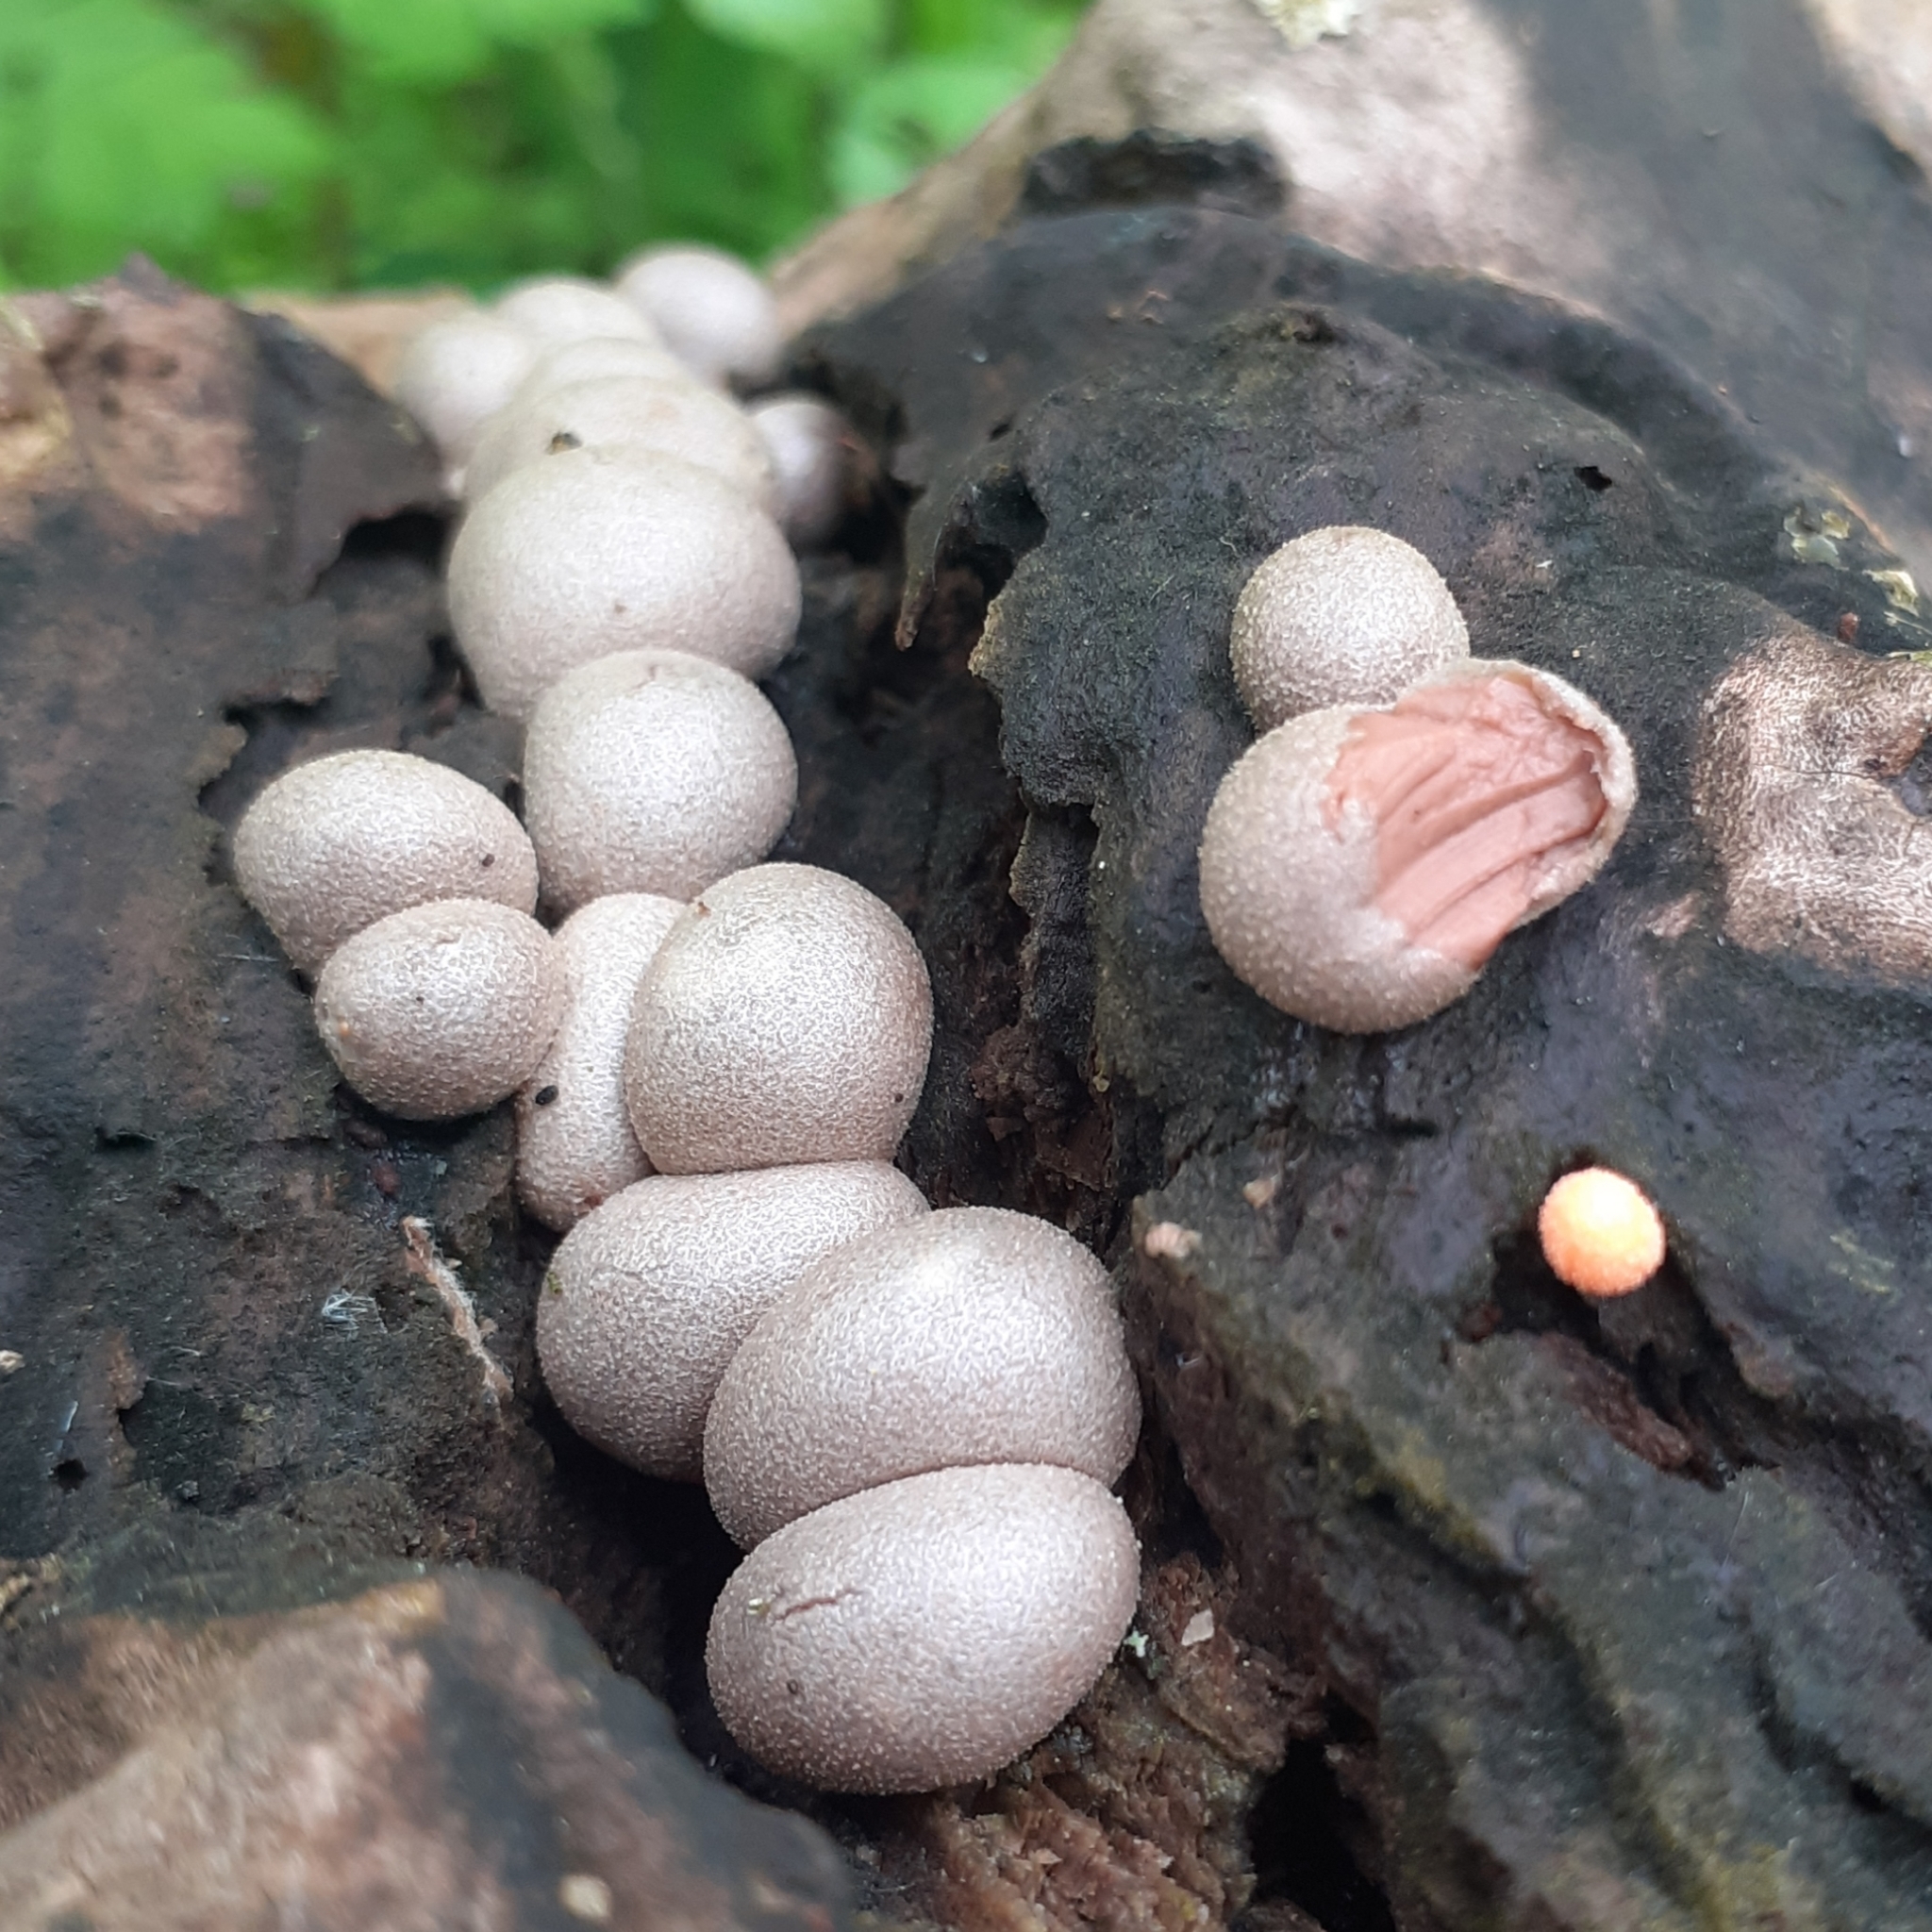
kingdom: Protozoa
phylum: Mycetozoa
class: Myxomycetes
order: Cribrariales
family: Tubiferaceae
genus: Lycogala
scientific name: Lycogala epidendrum
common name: Wolf's milk
